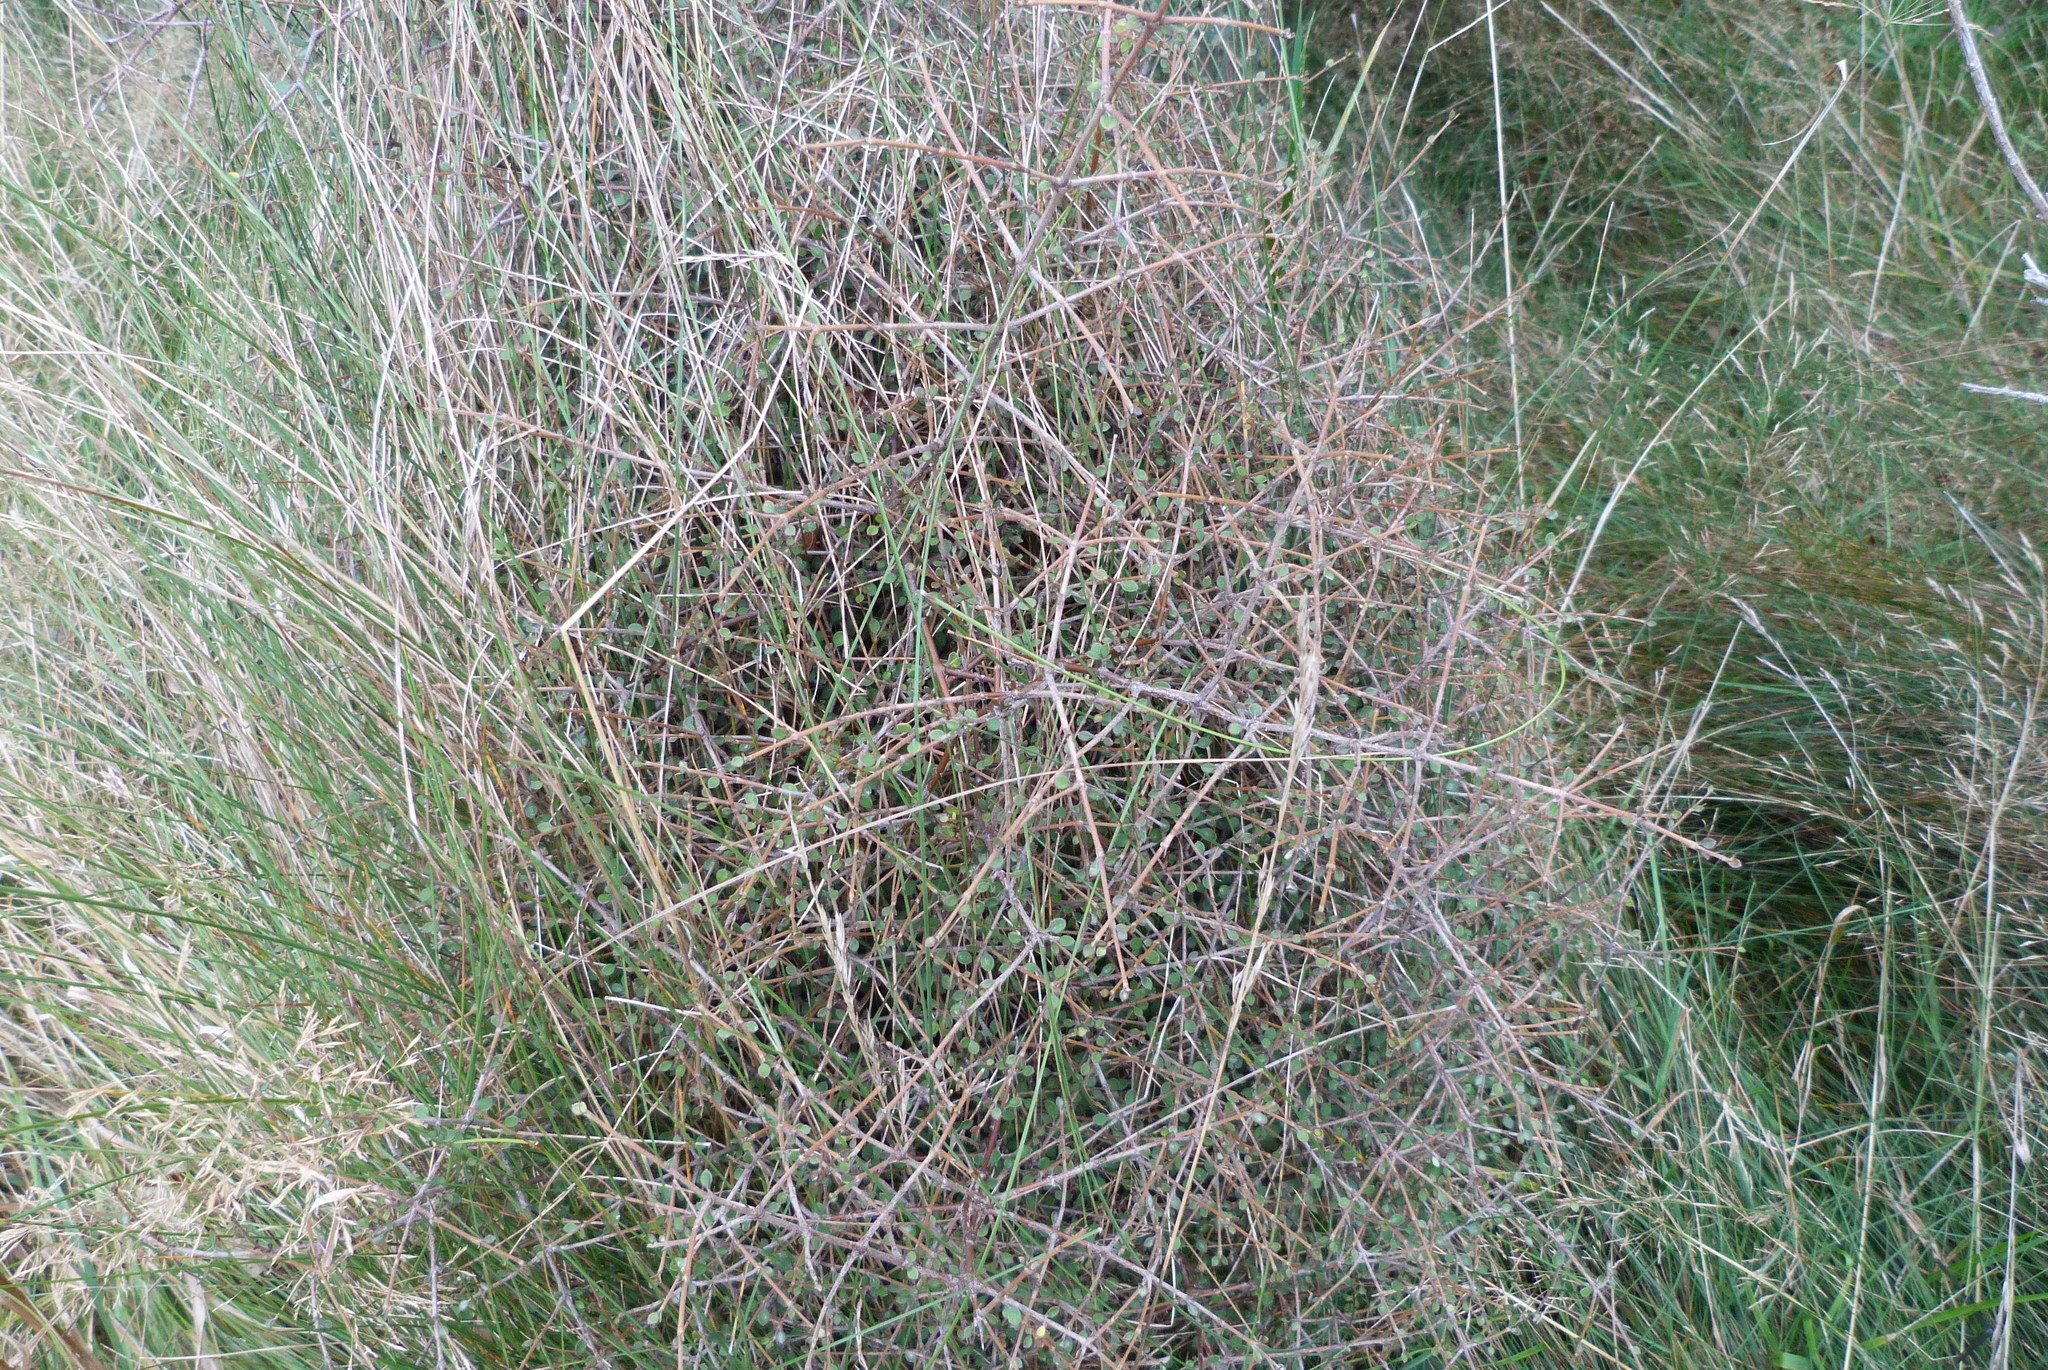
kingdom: Plantae
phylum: Tracheophyta
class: Magnoliopsida
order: Gentianales
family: Rubiaceae
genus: Coprosma
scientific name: Coprosma crassifolia
